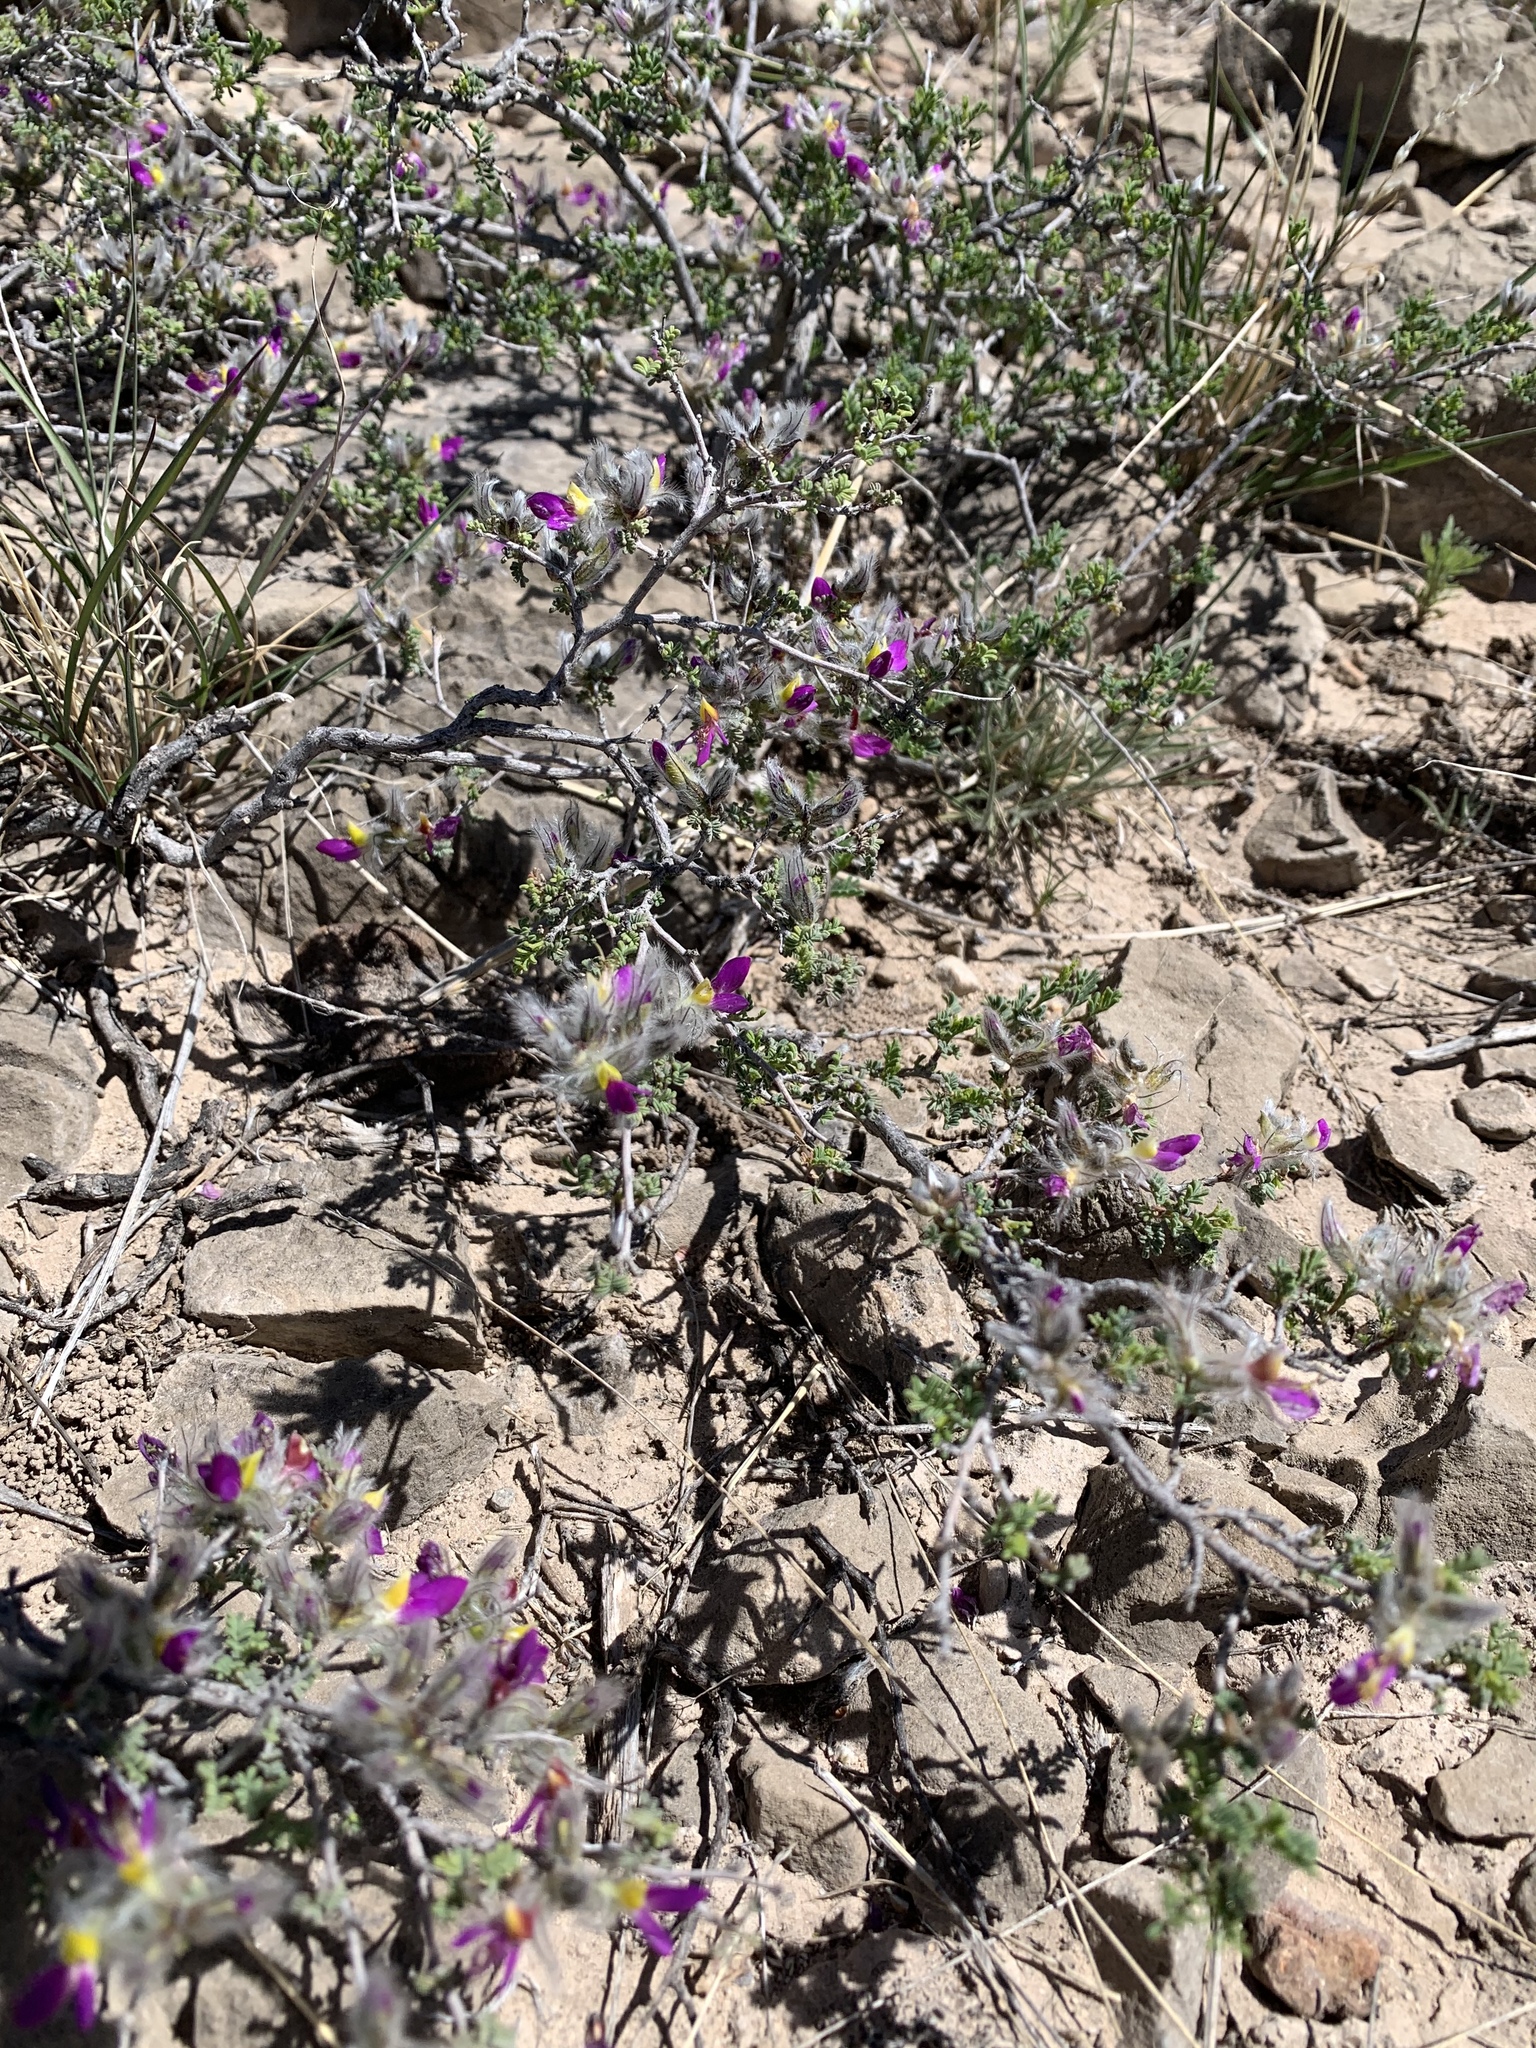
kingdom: Plantae
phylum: Tracheophyta
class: Magnoliopsida
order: Fabales
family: Fabaceae
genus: Dalea
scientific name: Dalea formosa
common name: Feather-plume dalea
